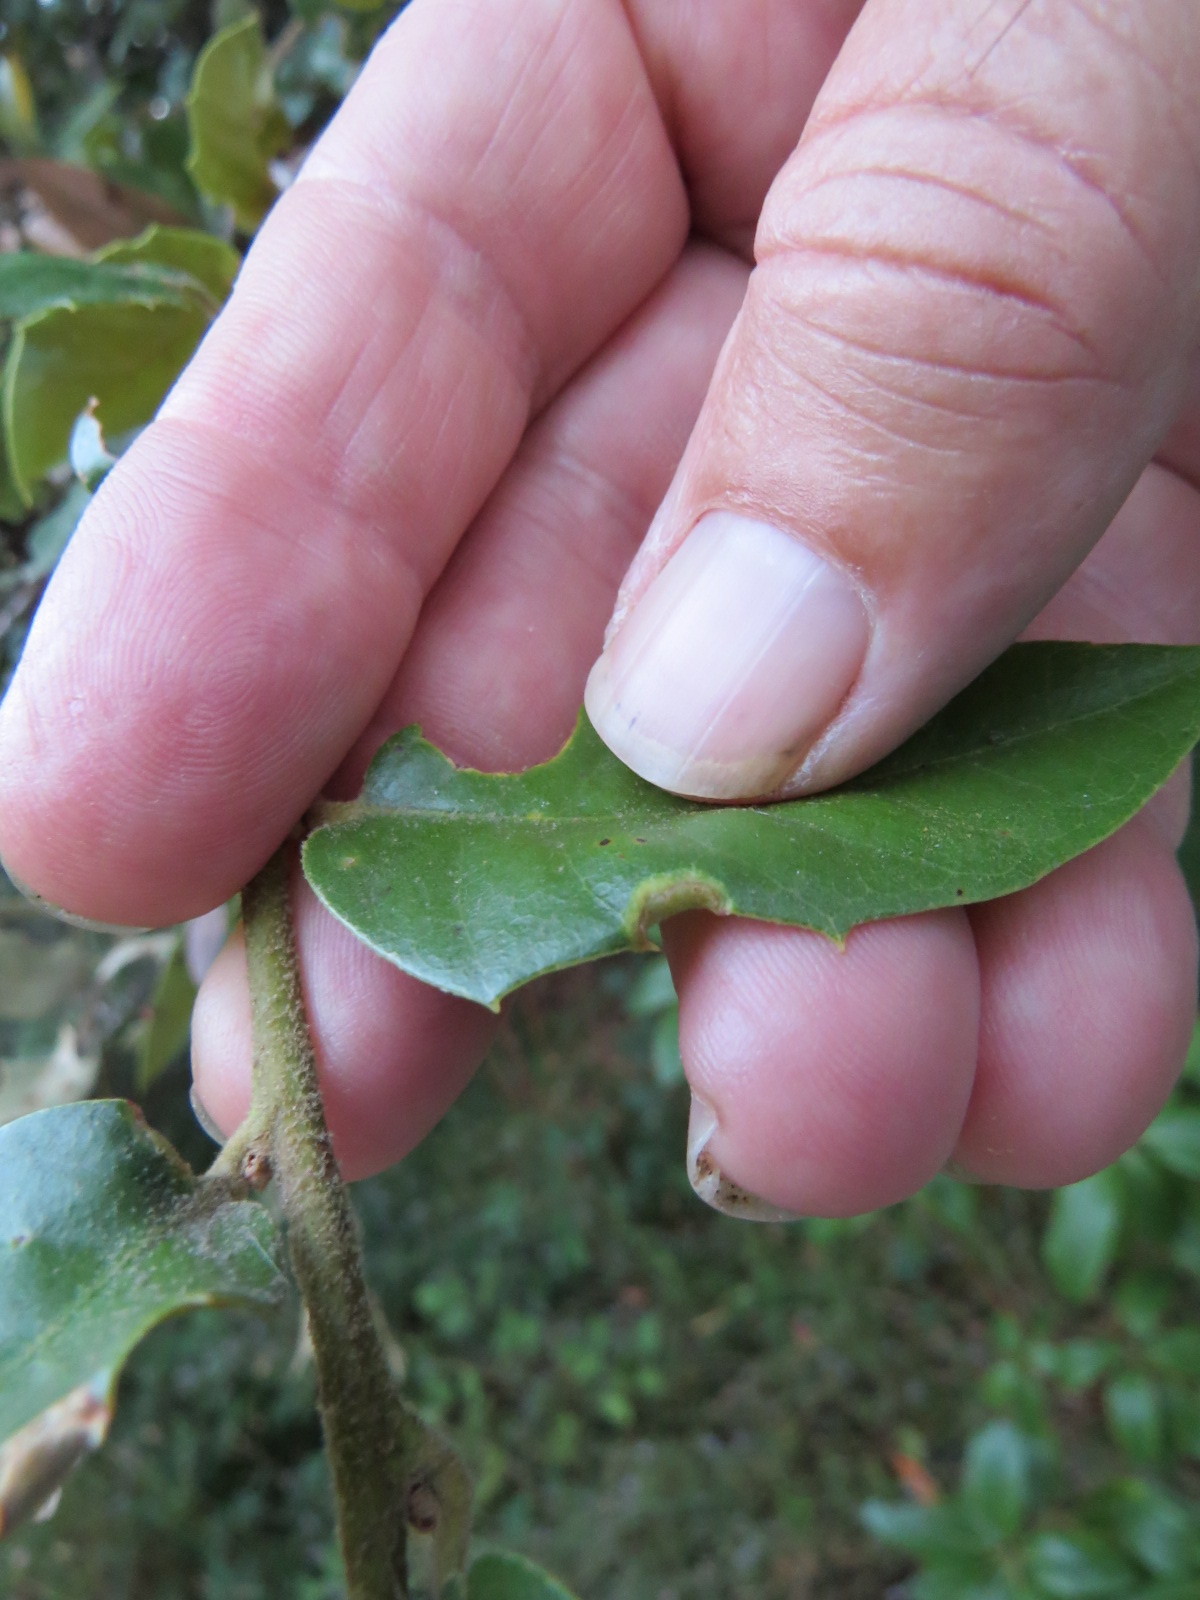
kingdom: Animalia
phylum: Arthropoda
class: Insecta
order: Diptera
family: Cecidomyiidae
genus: Dasineura
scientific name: Dasineura silvestrii
